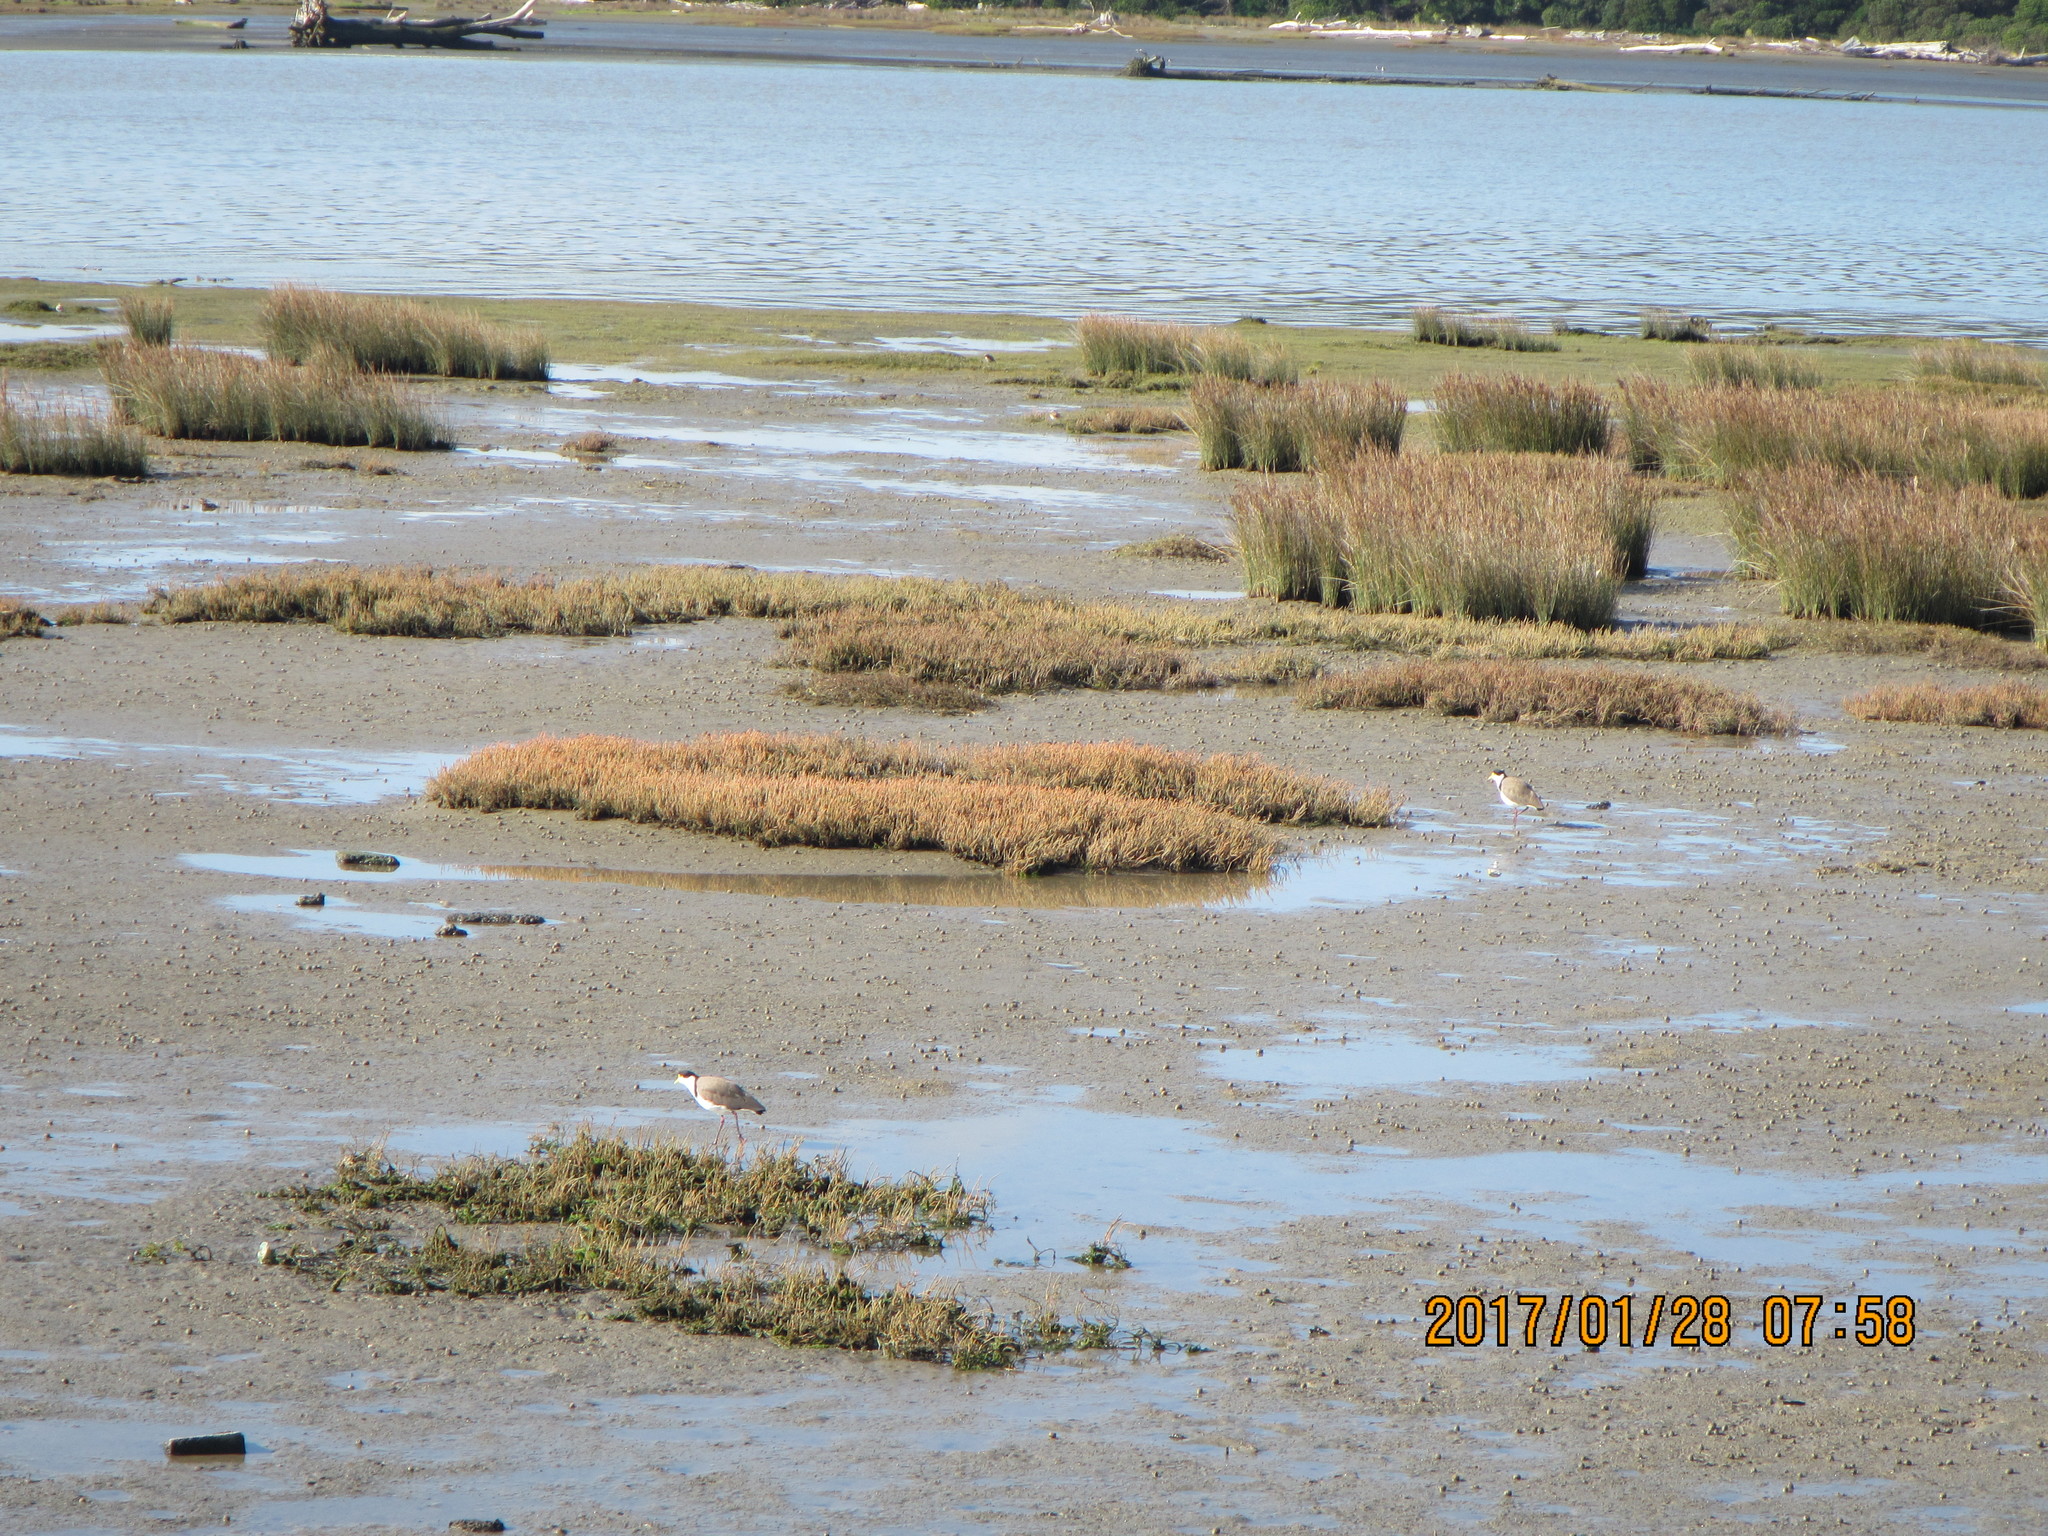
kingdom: Animalia
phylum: Chordata
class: Aves
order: Charadriiformes
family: Charadriidae
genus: Vanellus
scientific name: Vanellus miles
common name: Masked lapwing
